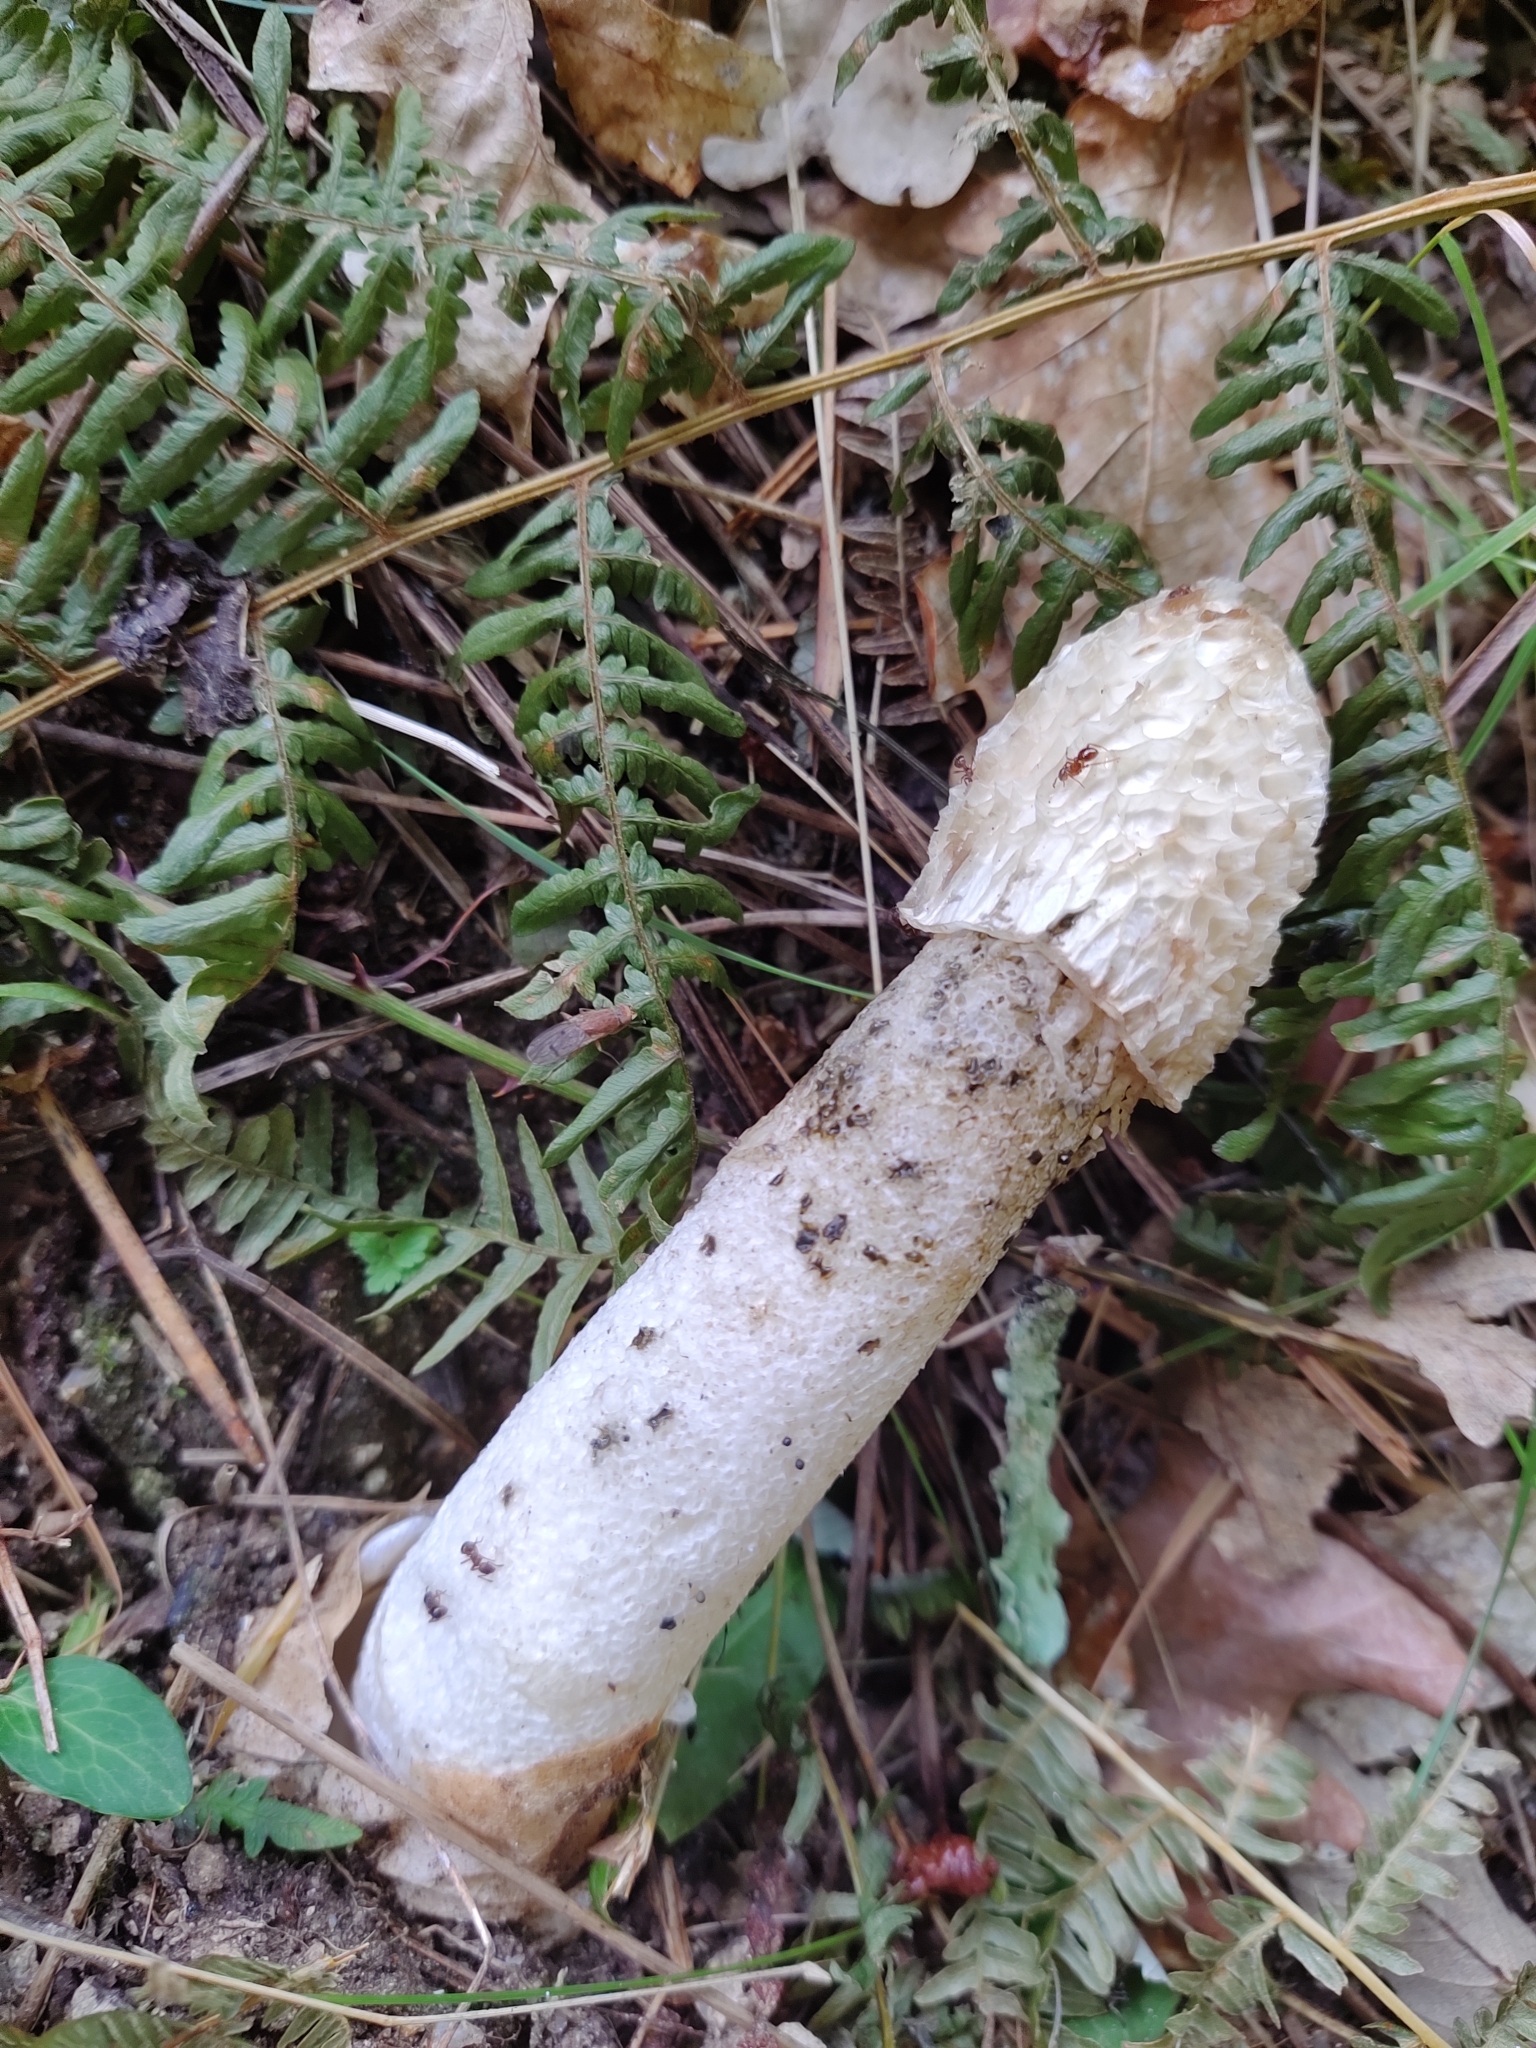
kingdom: Fungi
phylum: Basidiomycota
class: Agaricomycetes
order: Phallales
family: Phallaceae
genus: Phallus
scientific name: Phallus impudicus
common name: Common stinkhorn
